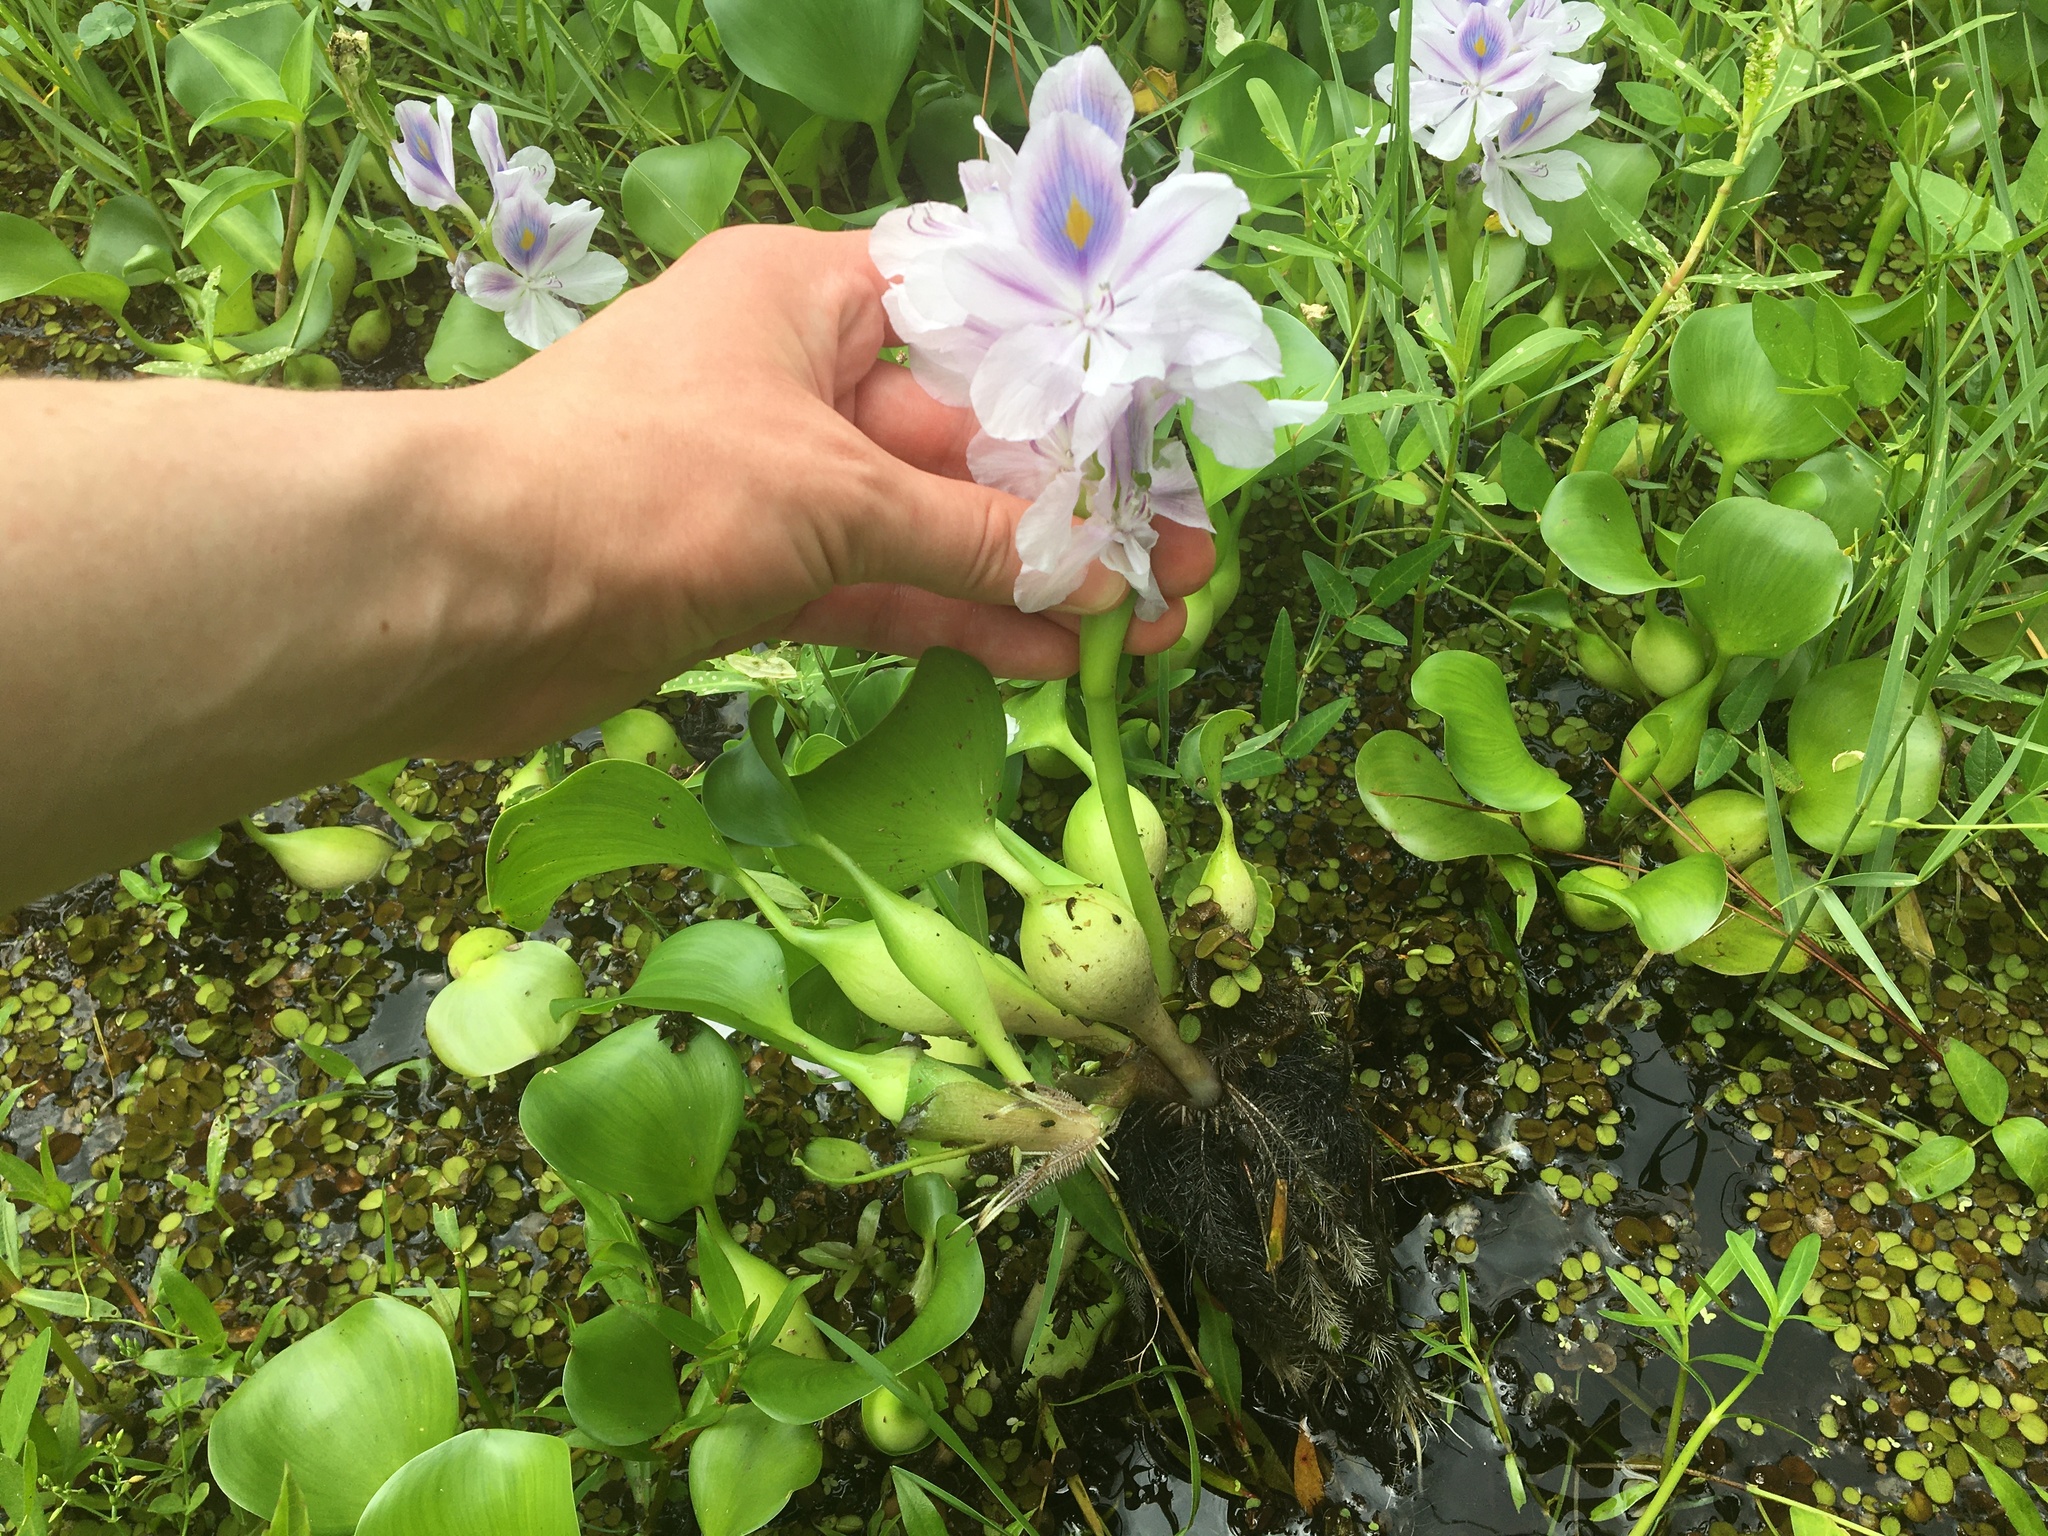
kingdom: Plantae
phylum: Tracheophyta
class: Liliopsida
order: Commelinales
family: Pontederiaceae
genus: Pontederia
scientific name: Pontederia crassipes
